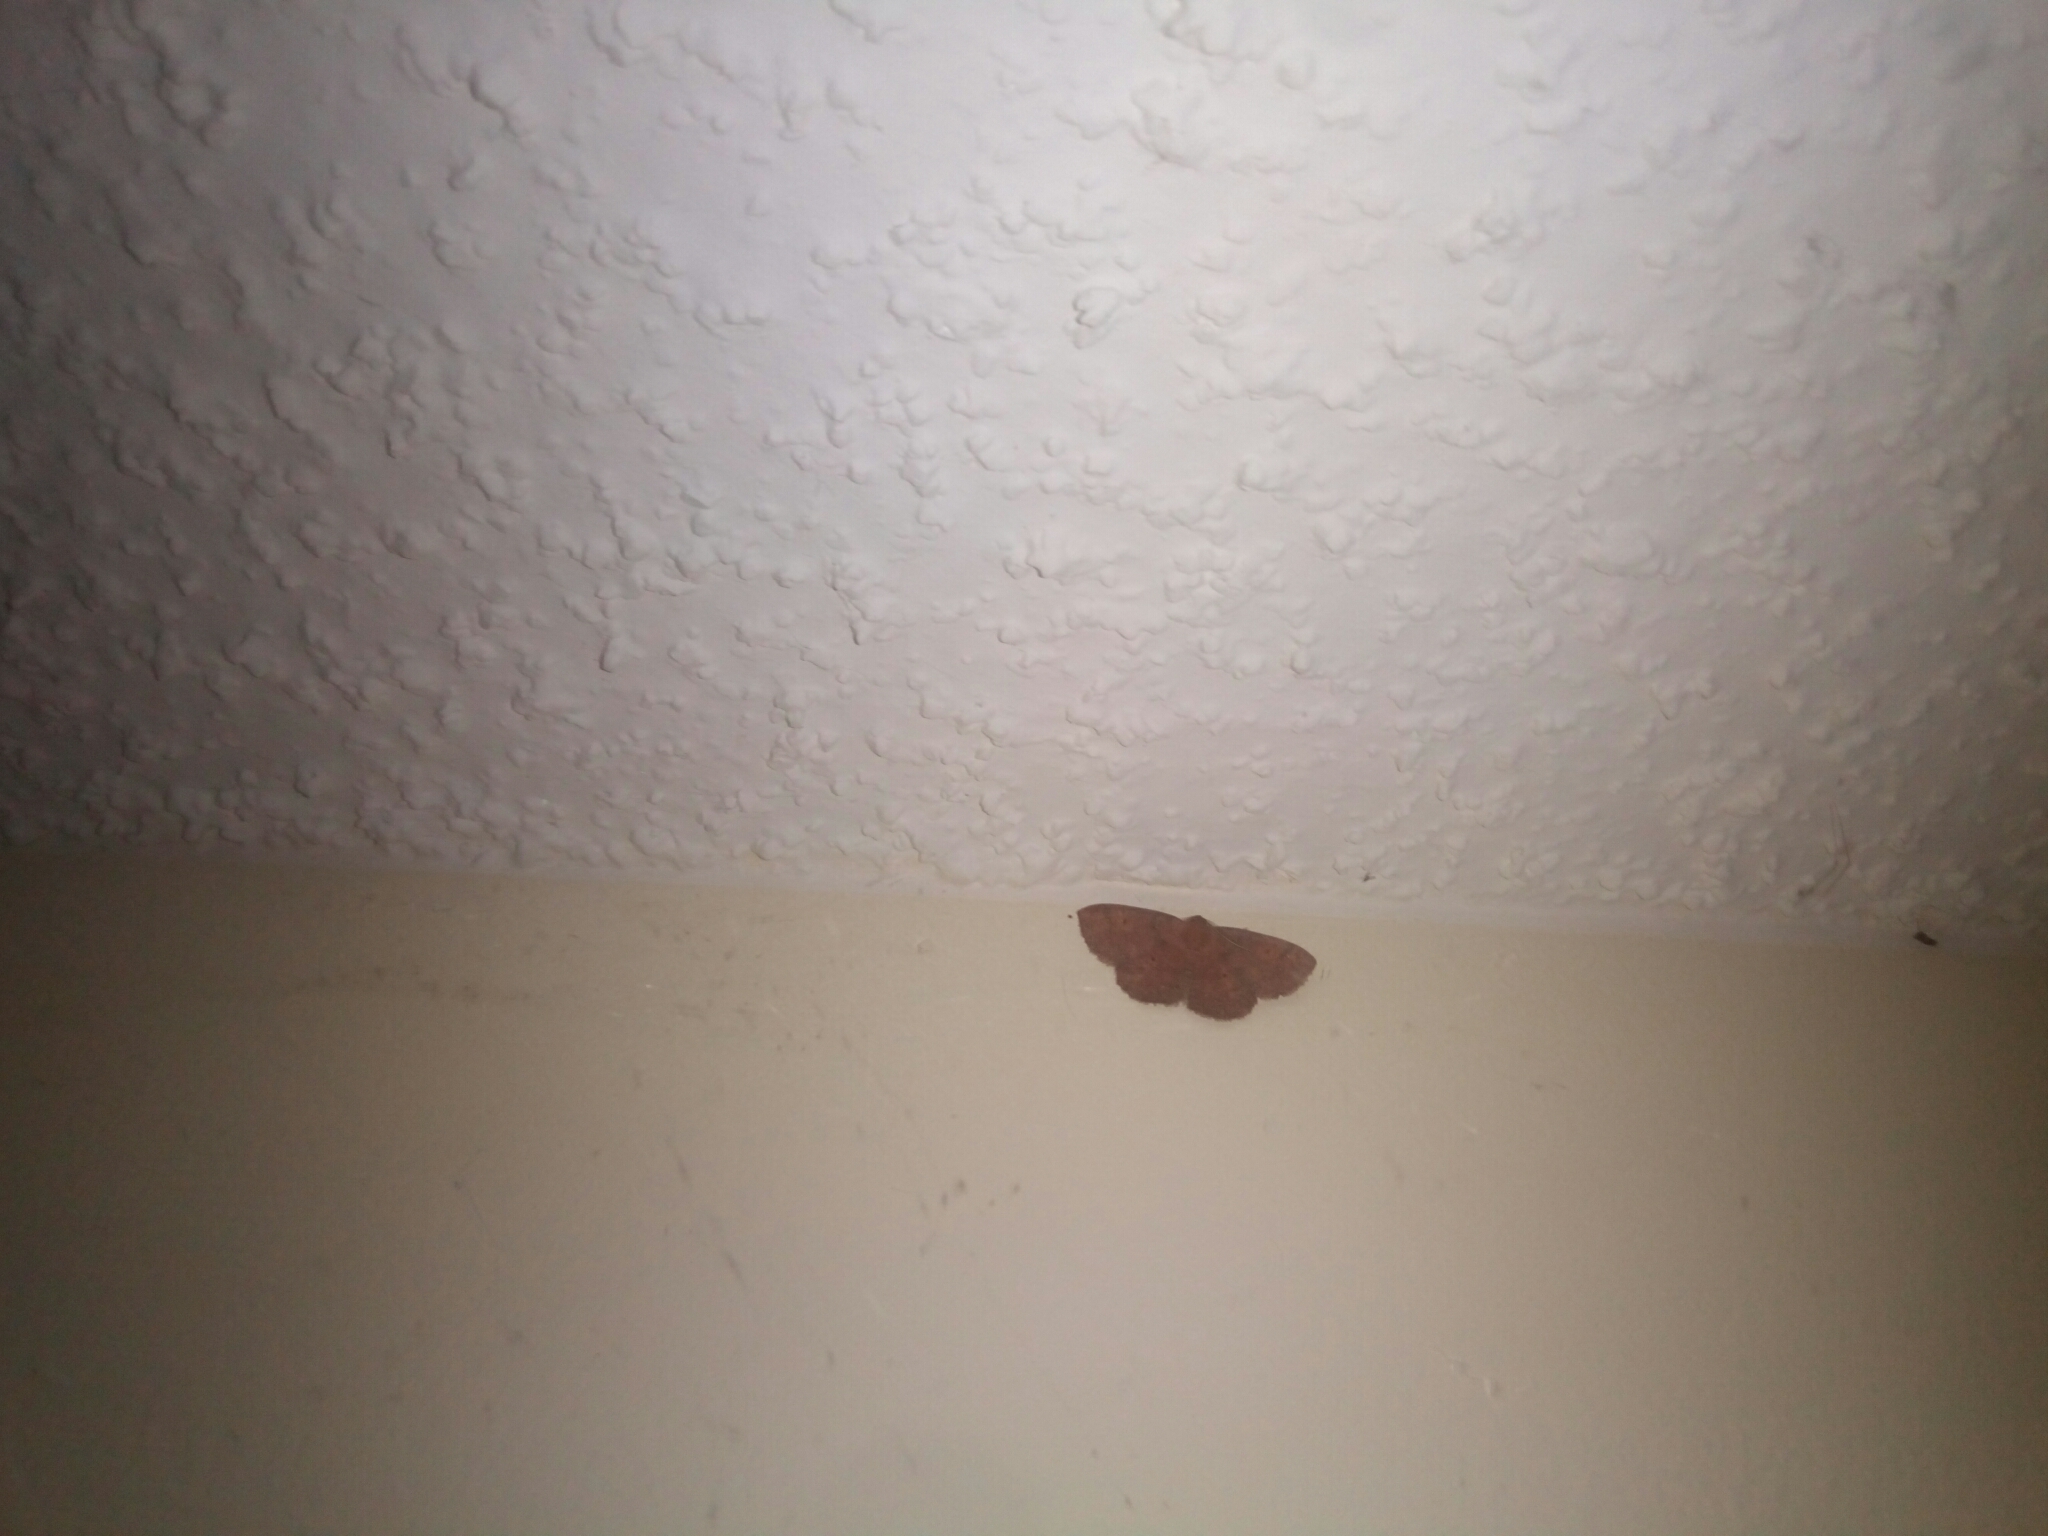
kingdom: Animalia
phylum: Arthropoda
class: Insecta
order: Lepidoptera
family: Geometridae
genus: Ilexia
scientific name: Ilexia intractata
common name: Black-dotted ruddy moth
